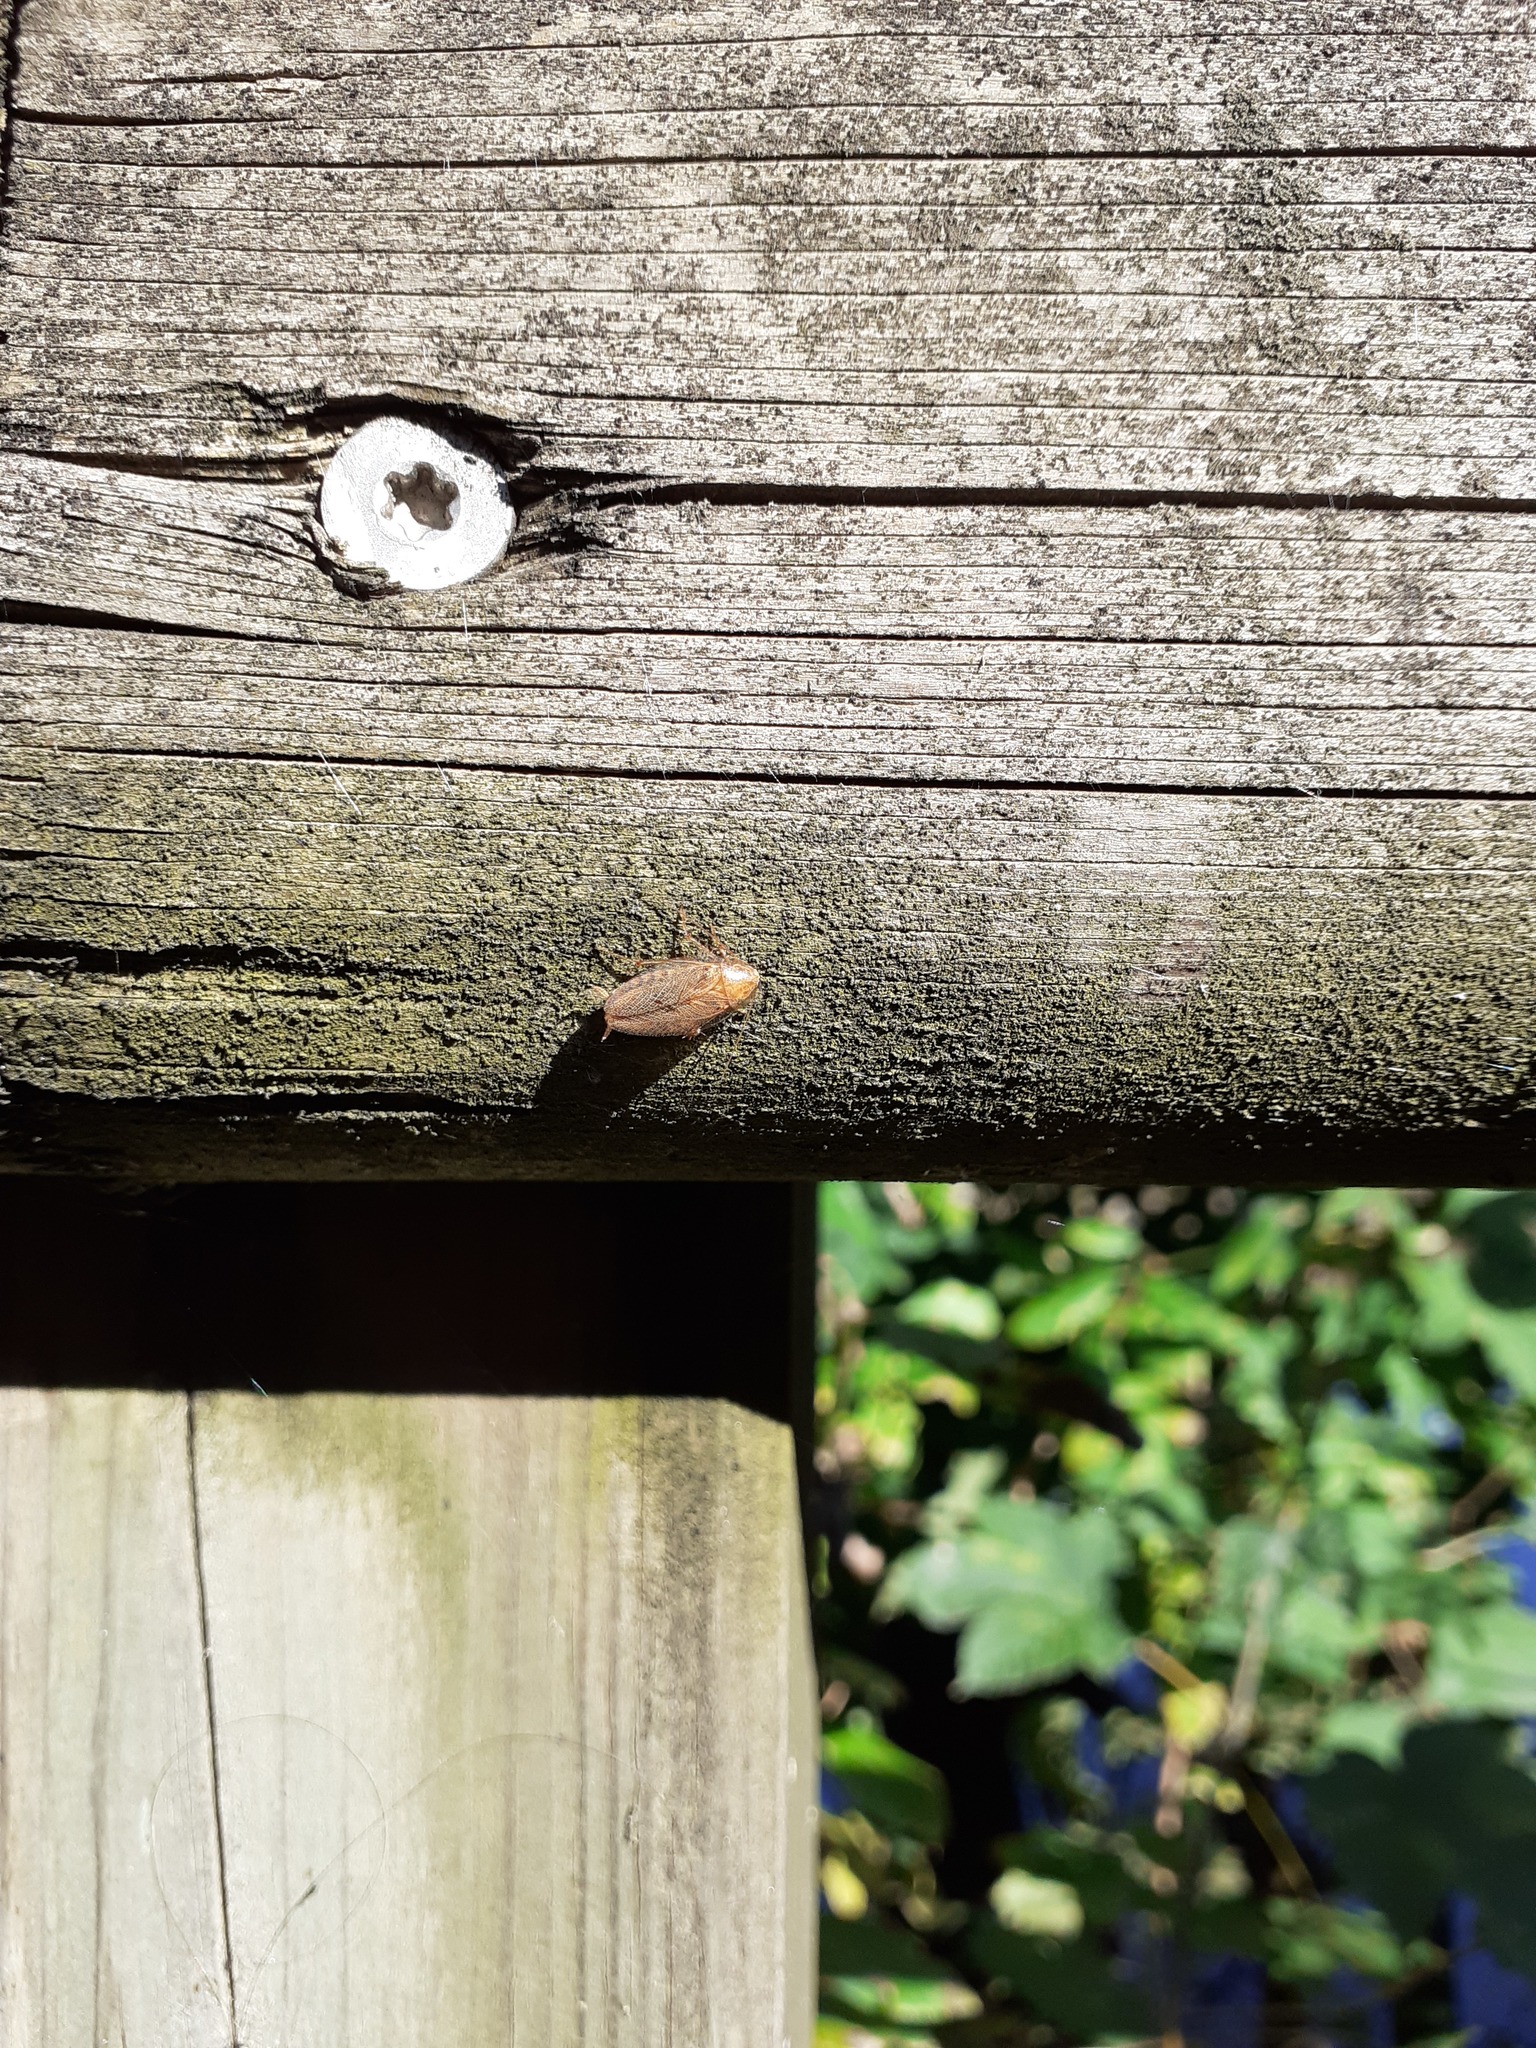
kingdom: Animalia
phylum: Arthropoda
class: Insecta
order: Blattodea
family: Ectobiidae
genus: Ectobius
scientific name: Ectobius vittiventris
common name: Garden cockroach
